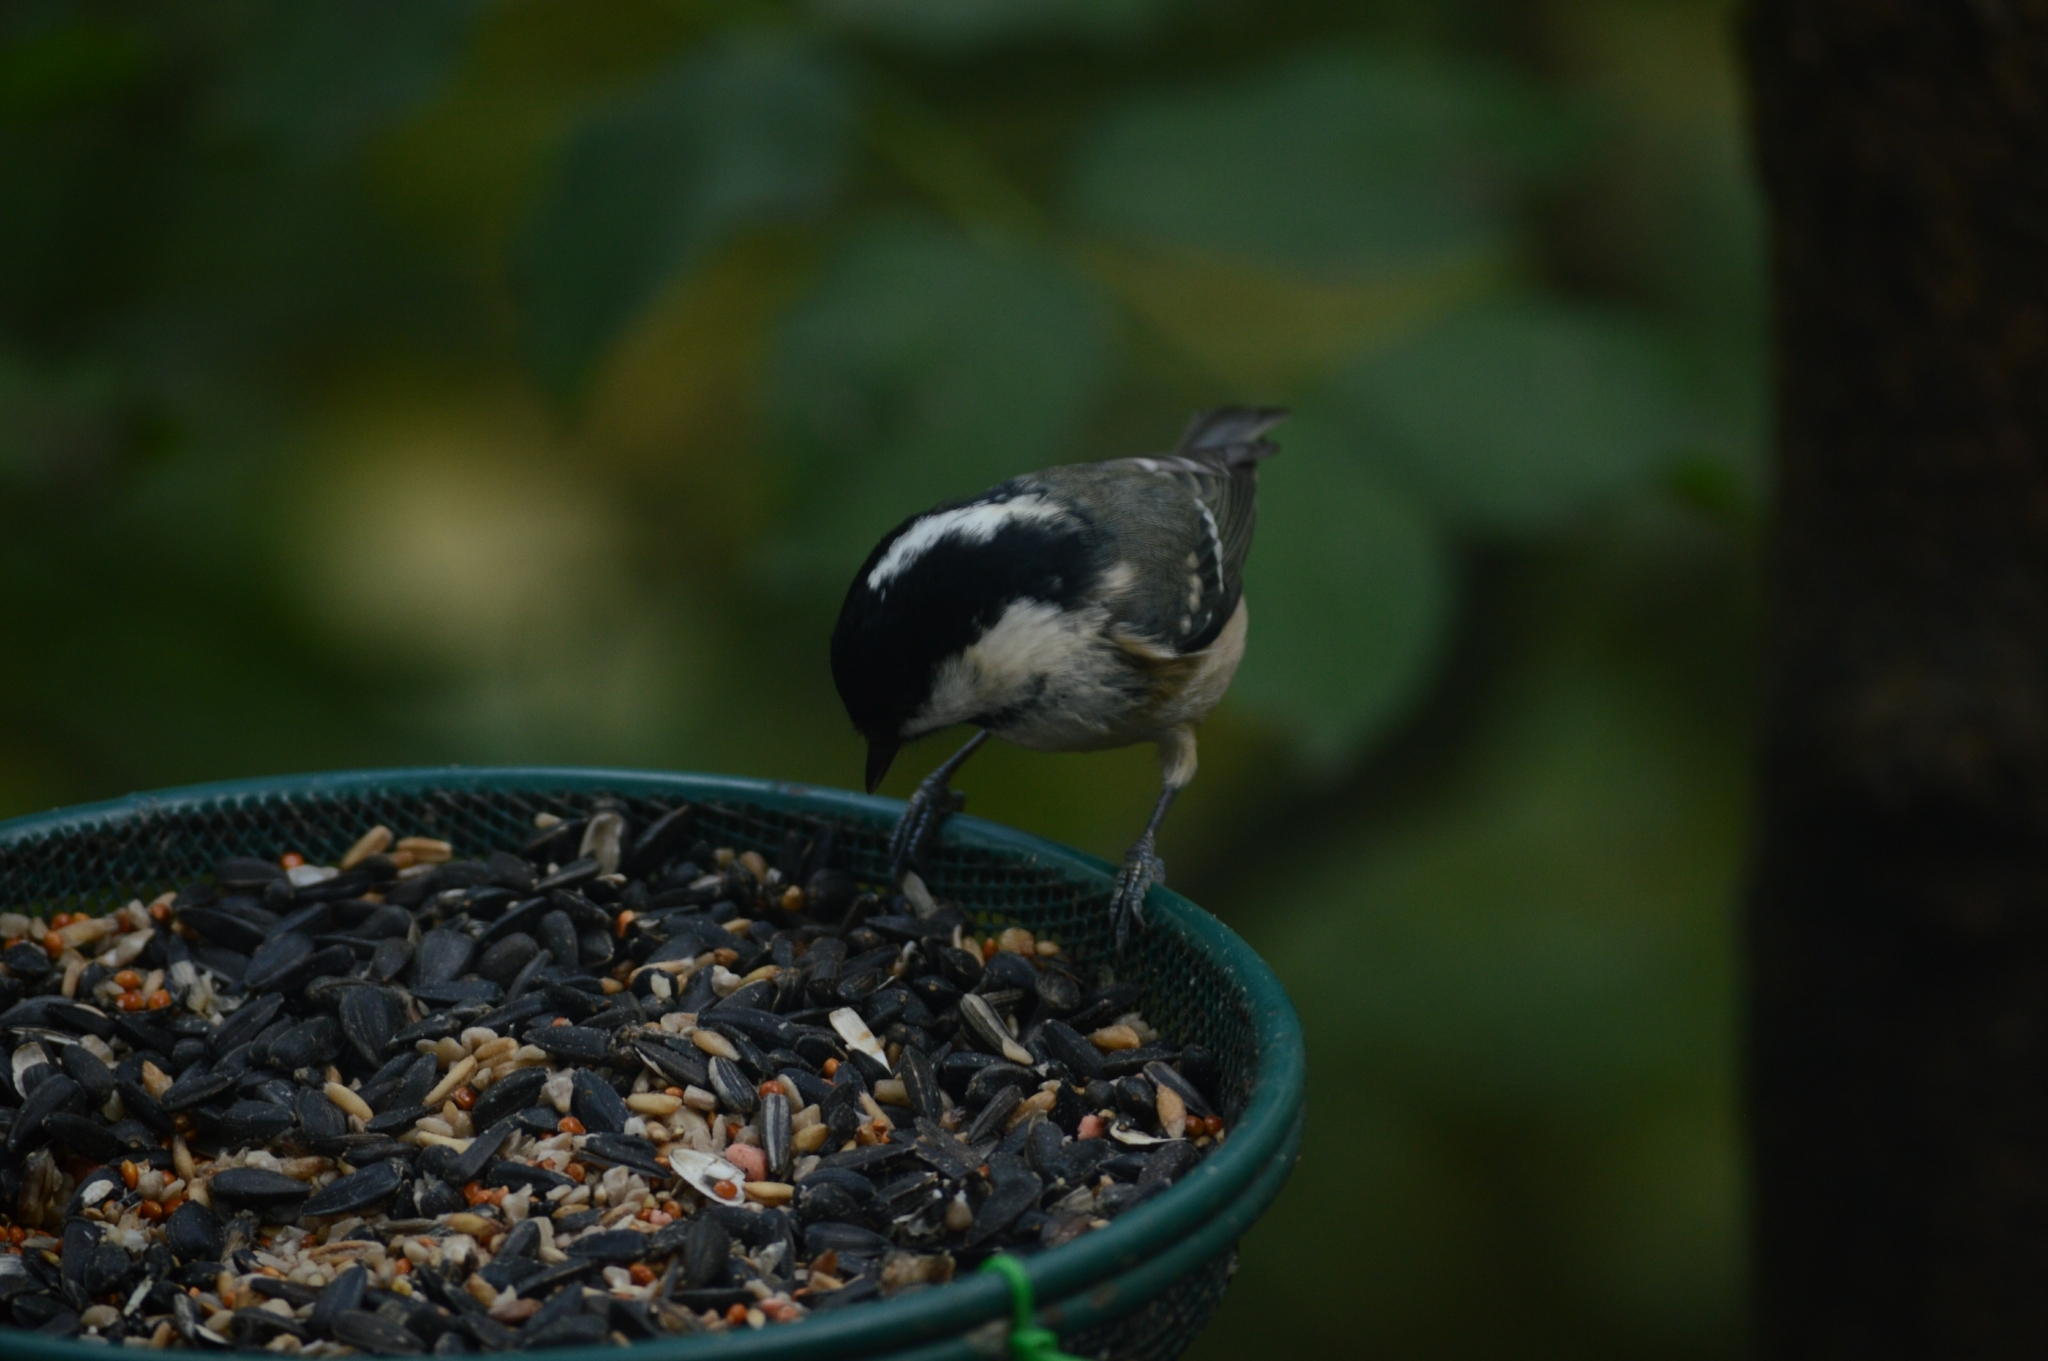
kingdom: Animalia
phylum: Chordata
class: Aves
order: Passeriformes
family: Paridae
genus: Periparus
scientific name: Periparus ater
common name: Coal tit
